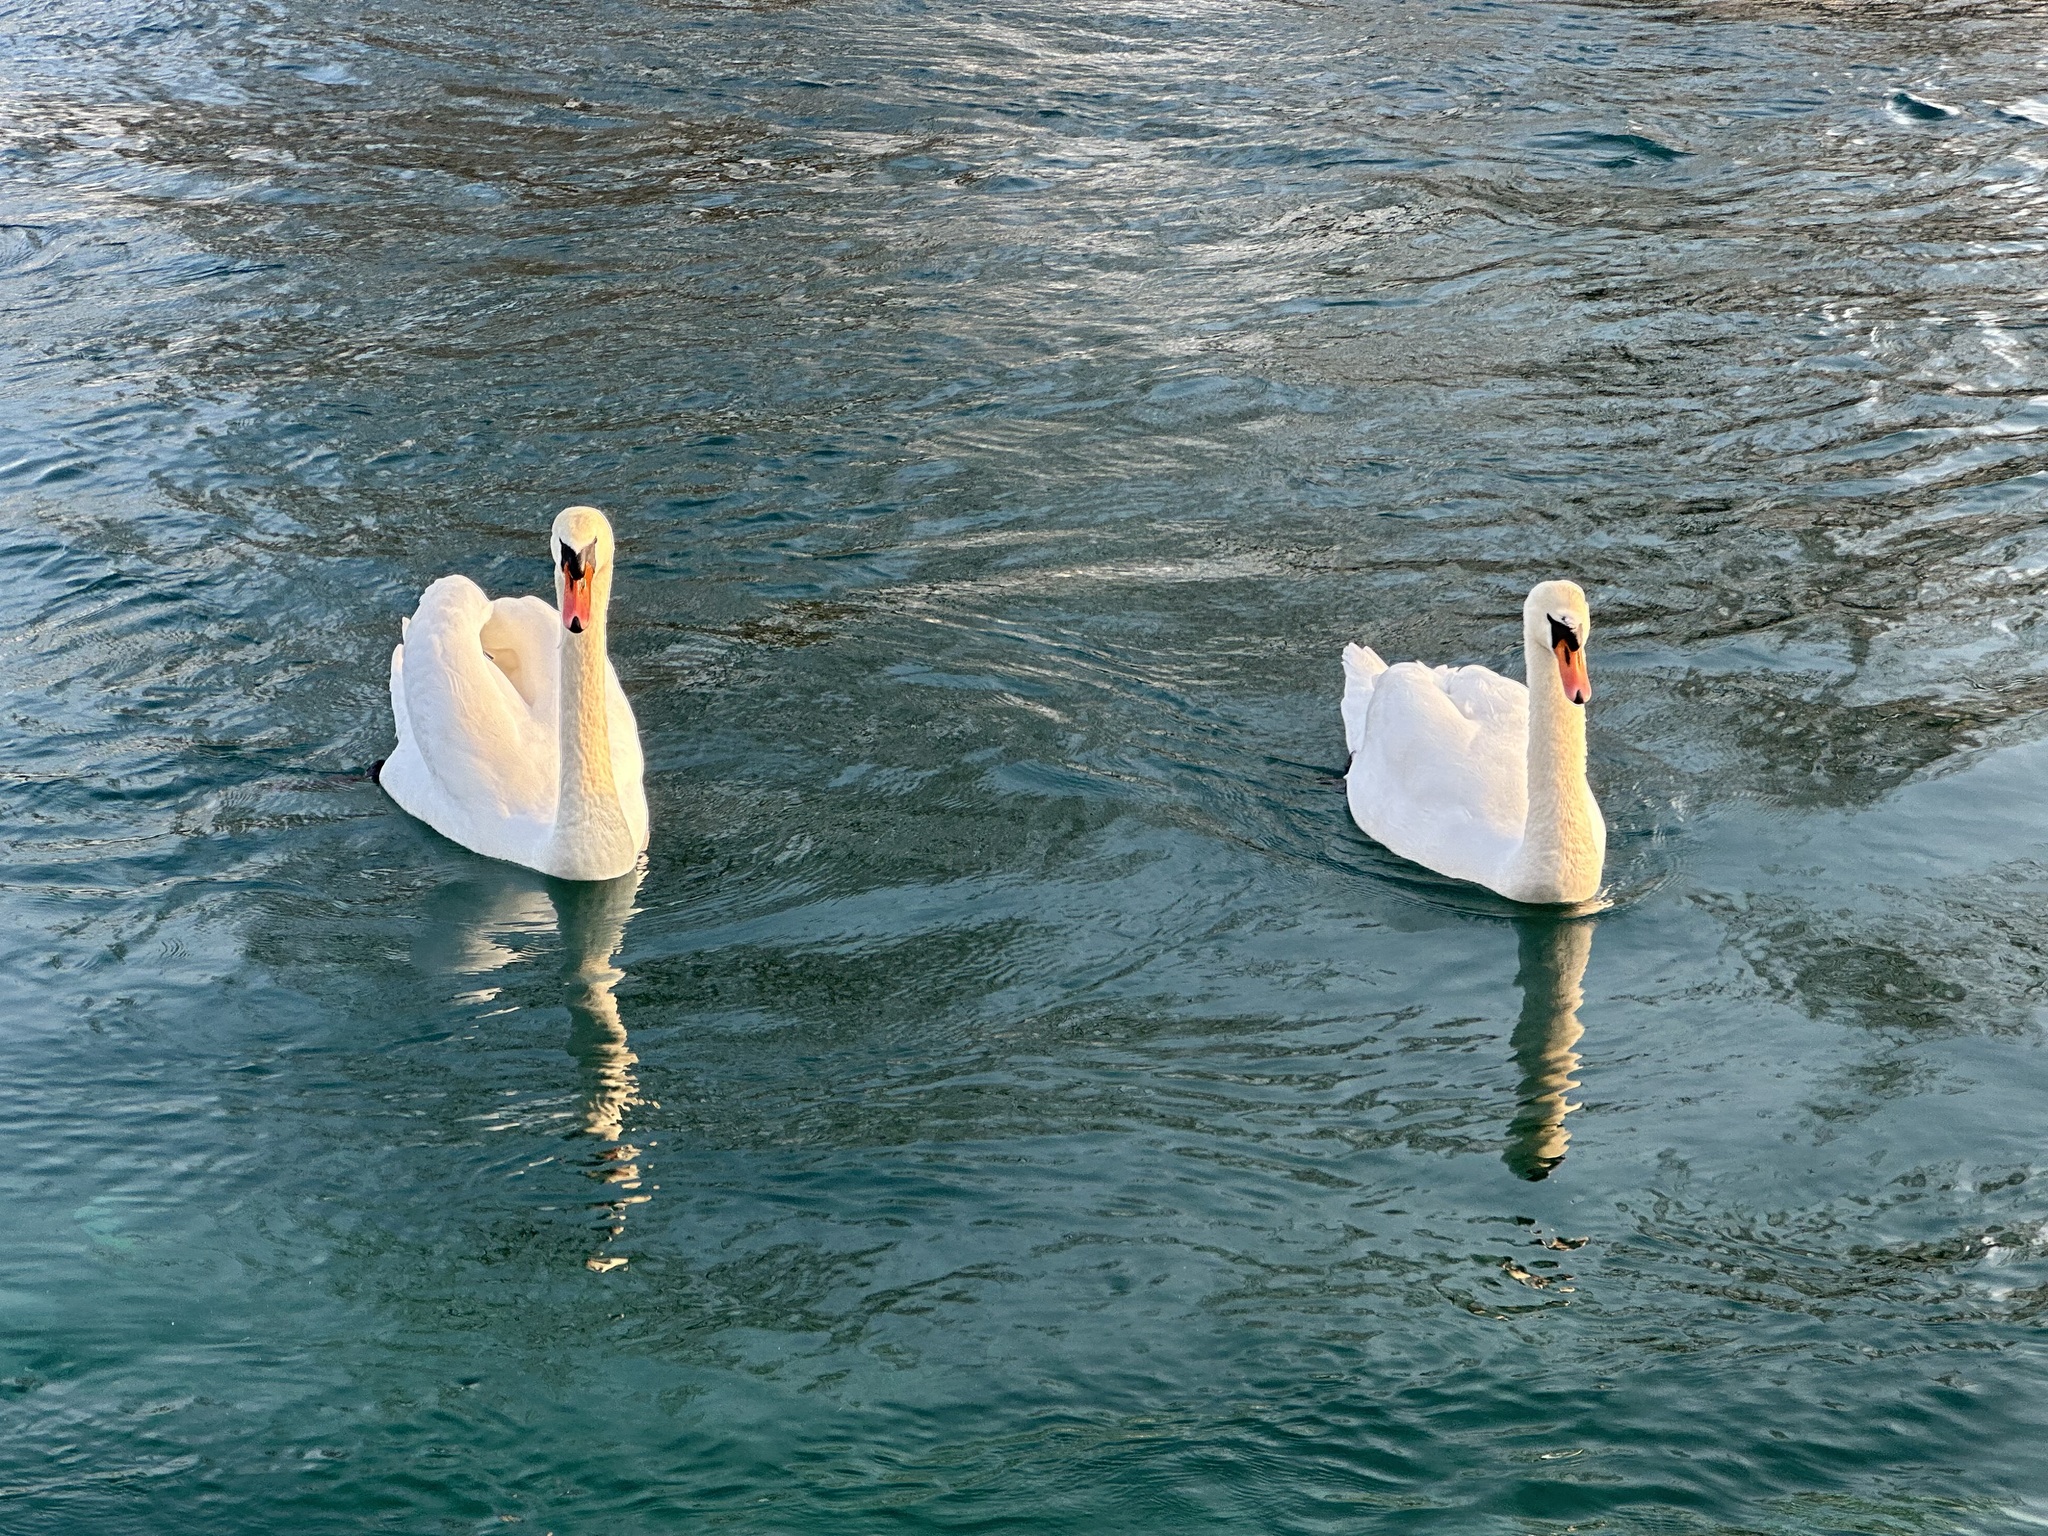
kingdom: Animalia
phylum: Chordata
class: Aves
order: Anseriformes
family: Anatidae
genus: Cygnus
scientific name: Cygnus olor
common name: Mute swan
